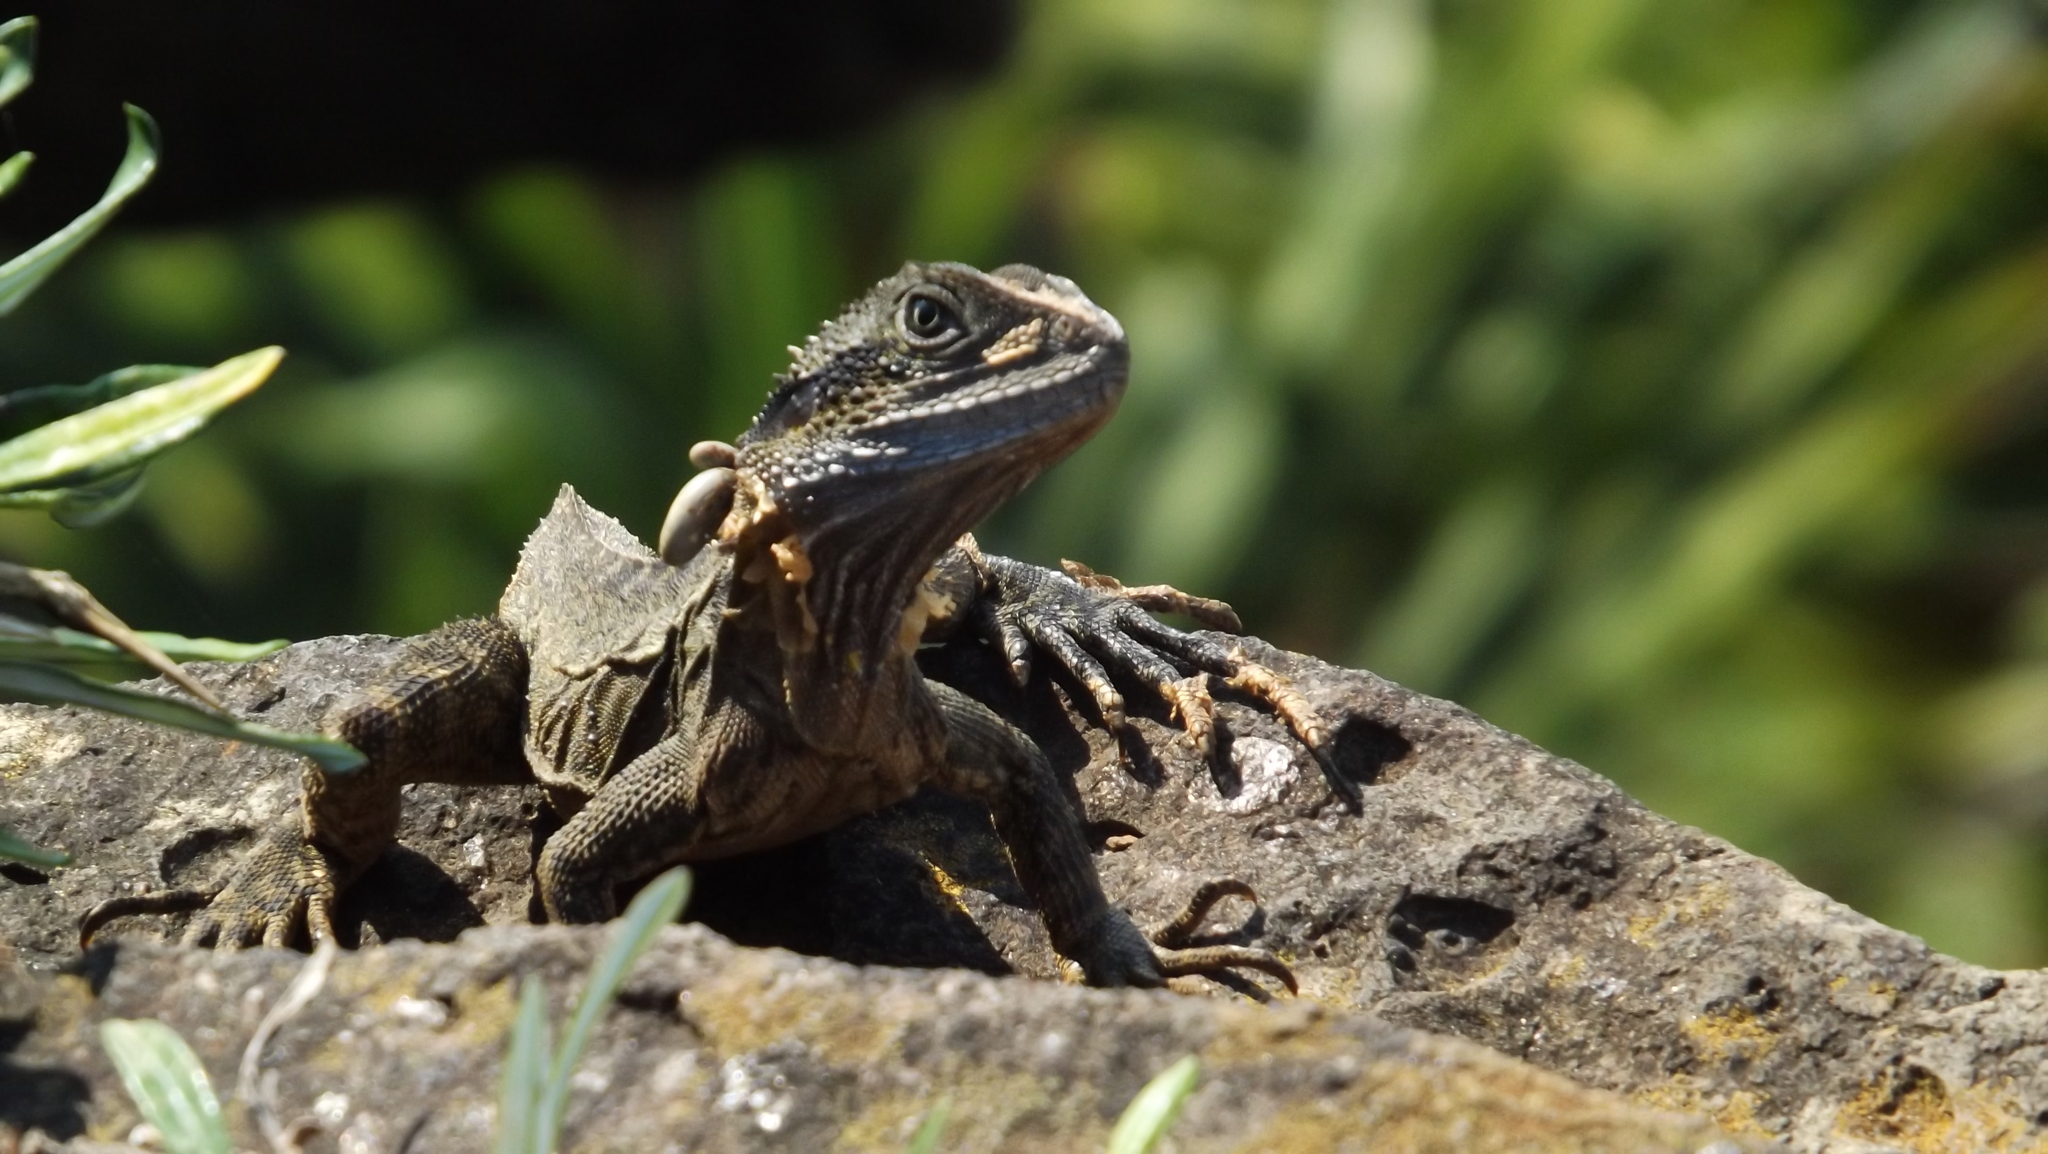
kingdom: Animalia
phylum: Chordata
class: Squamata
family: Agamidae
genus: Intellagama
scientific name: Intellagama lesueurii
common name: Eastern water dragon
